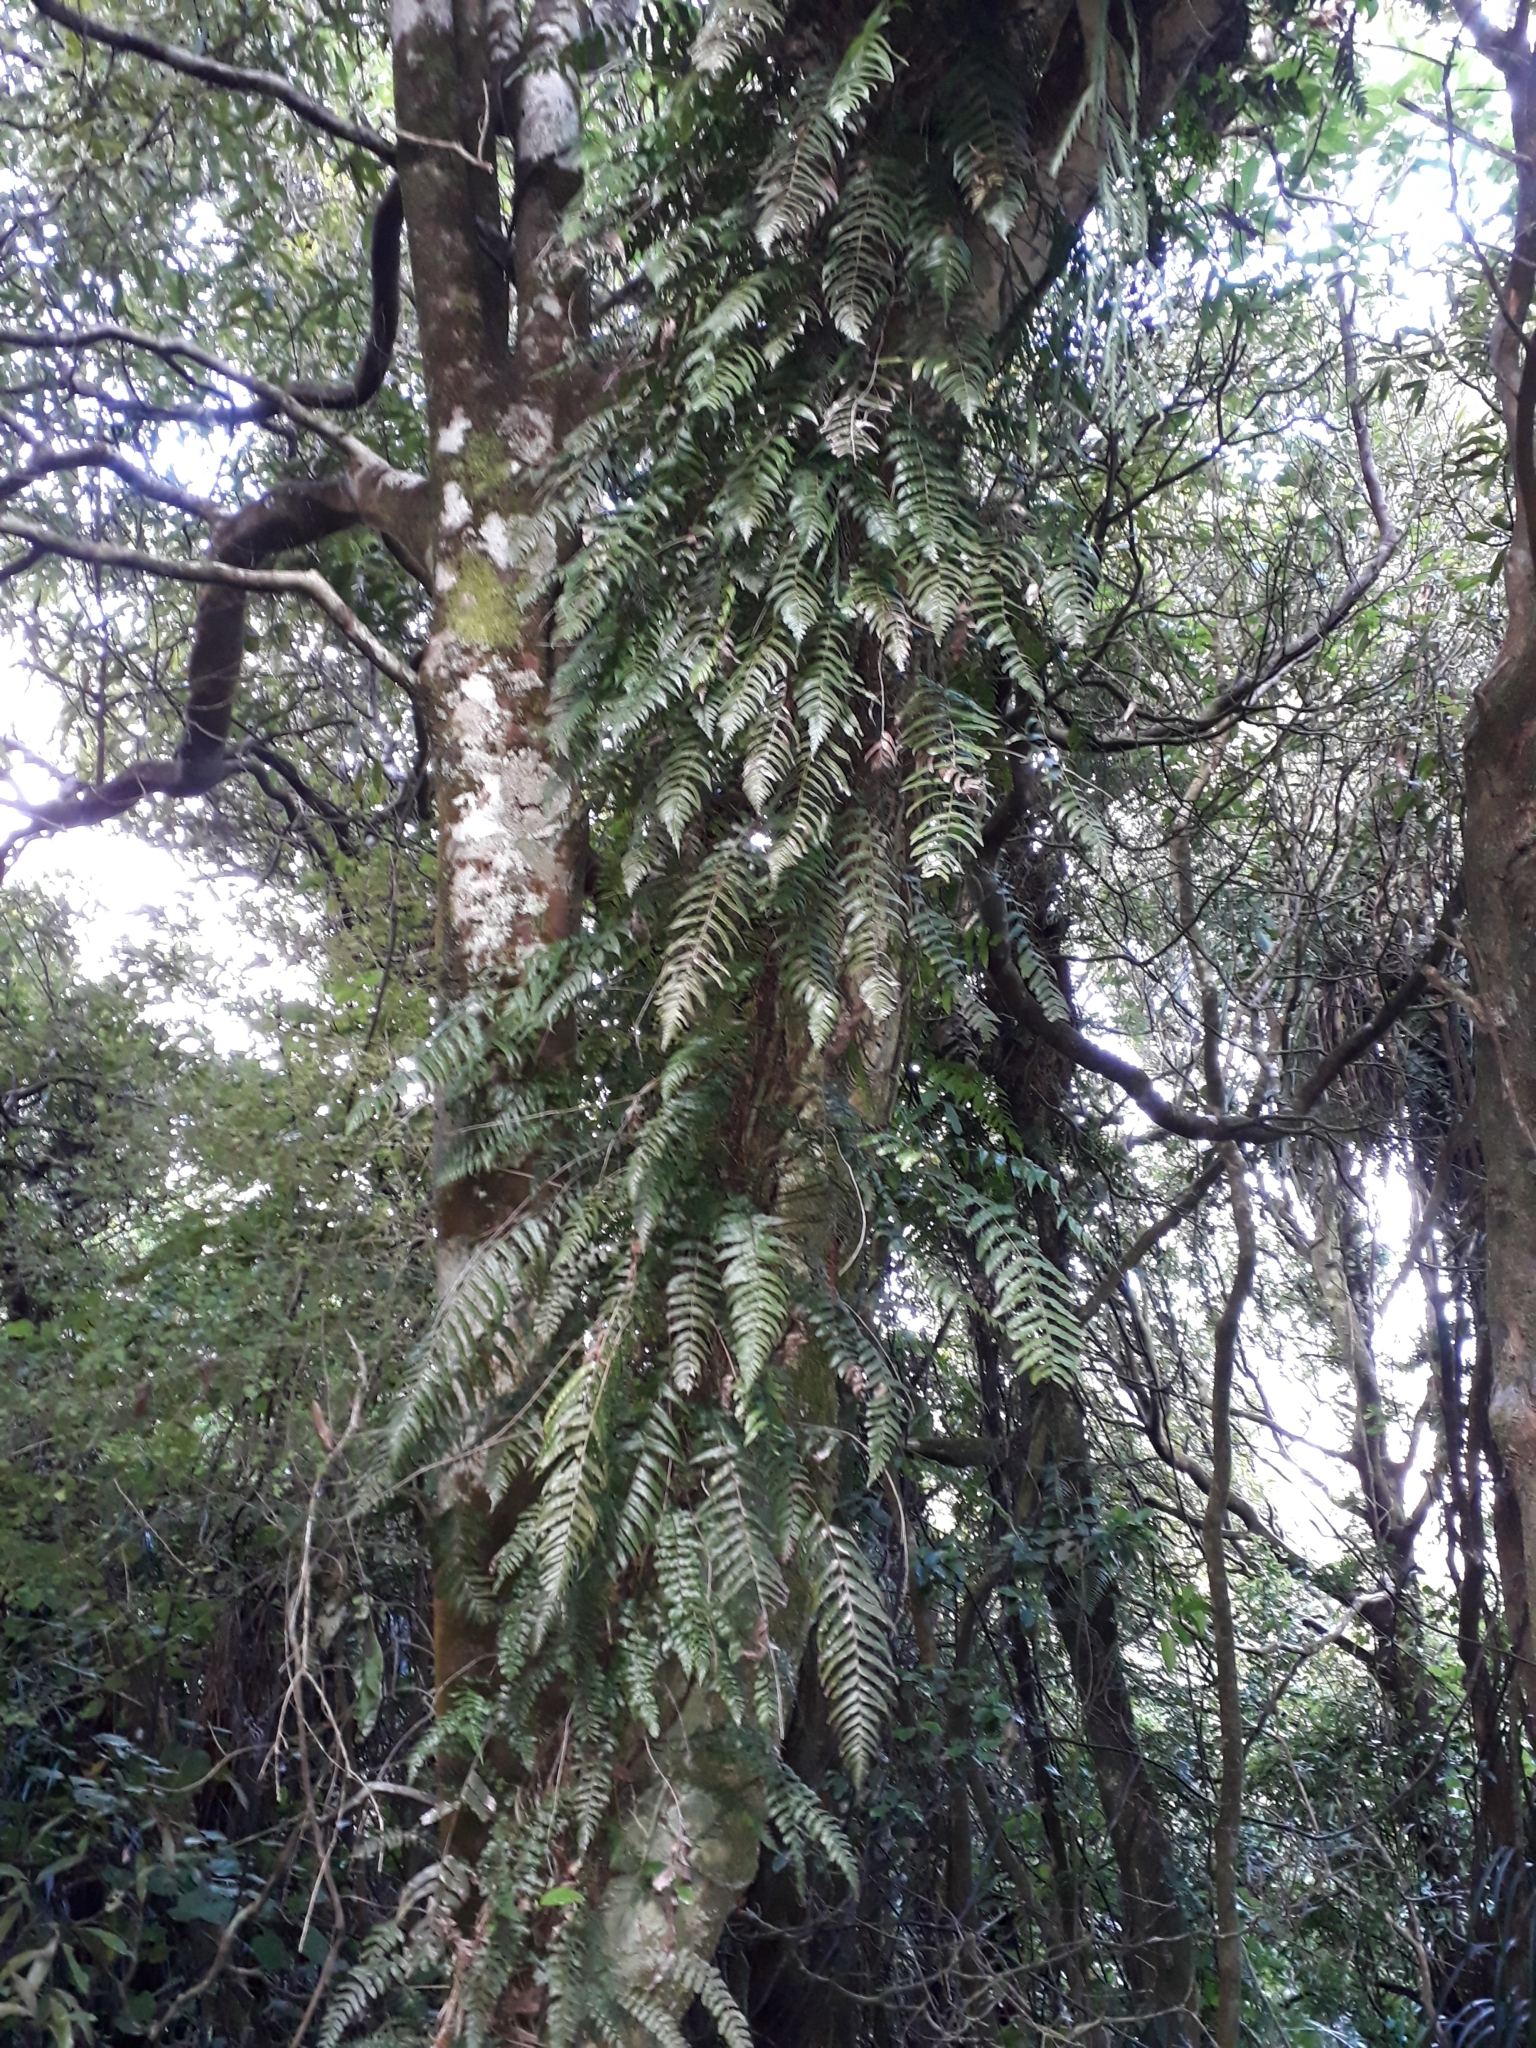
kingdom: Plantae
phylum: Tracheophyta
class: Polypodiopsida
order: Polypodiales
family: Blechnaceae
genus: Icarus
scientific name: Icarus filiformis
